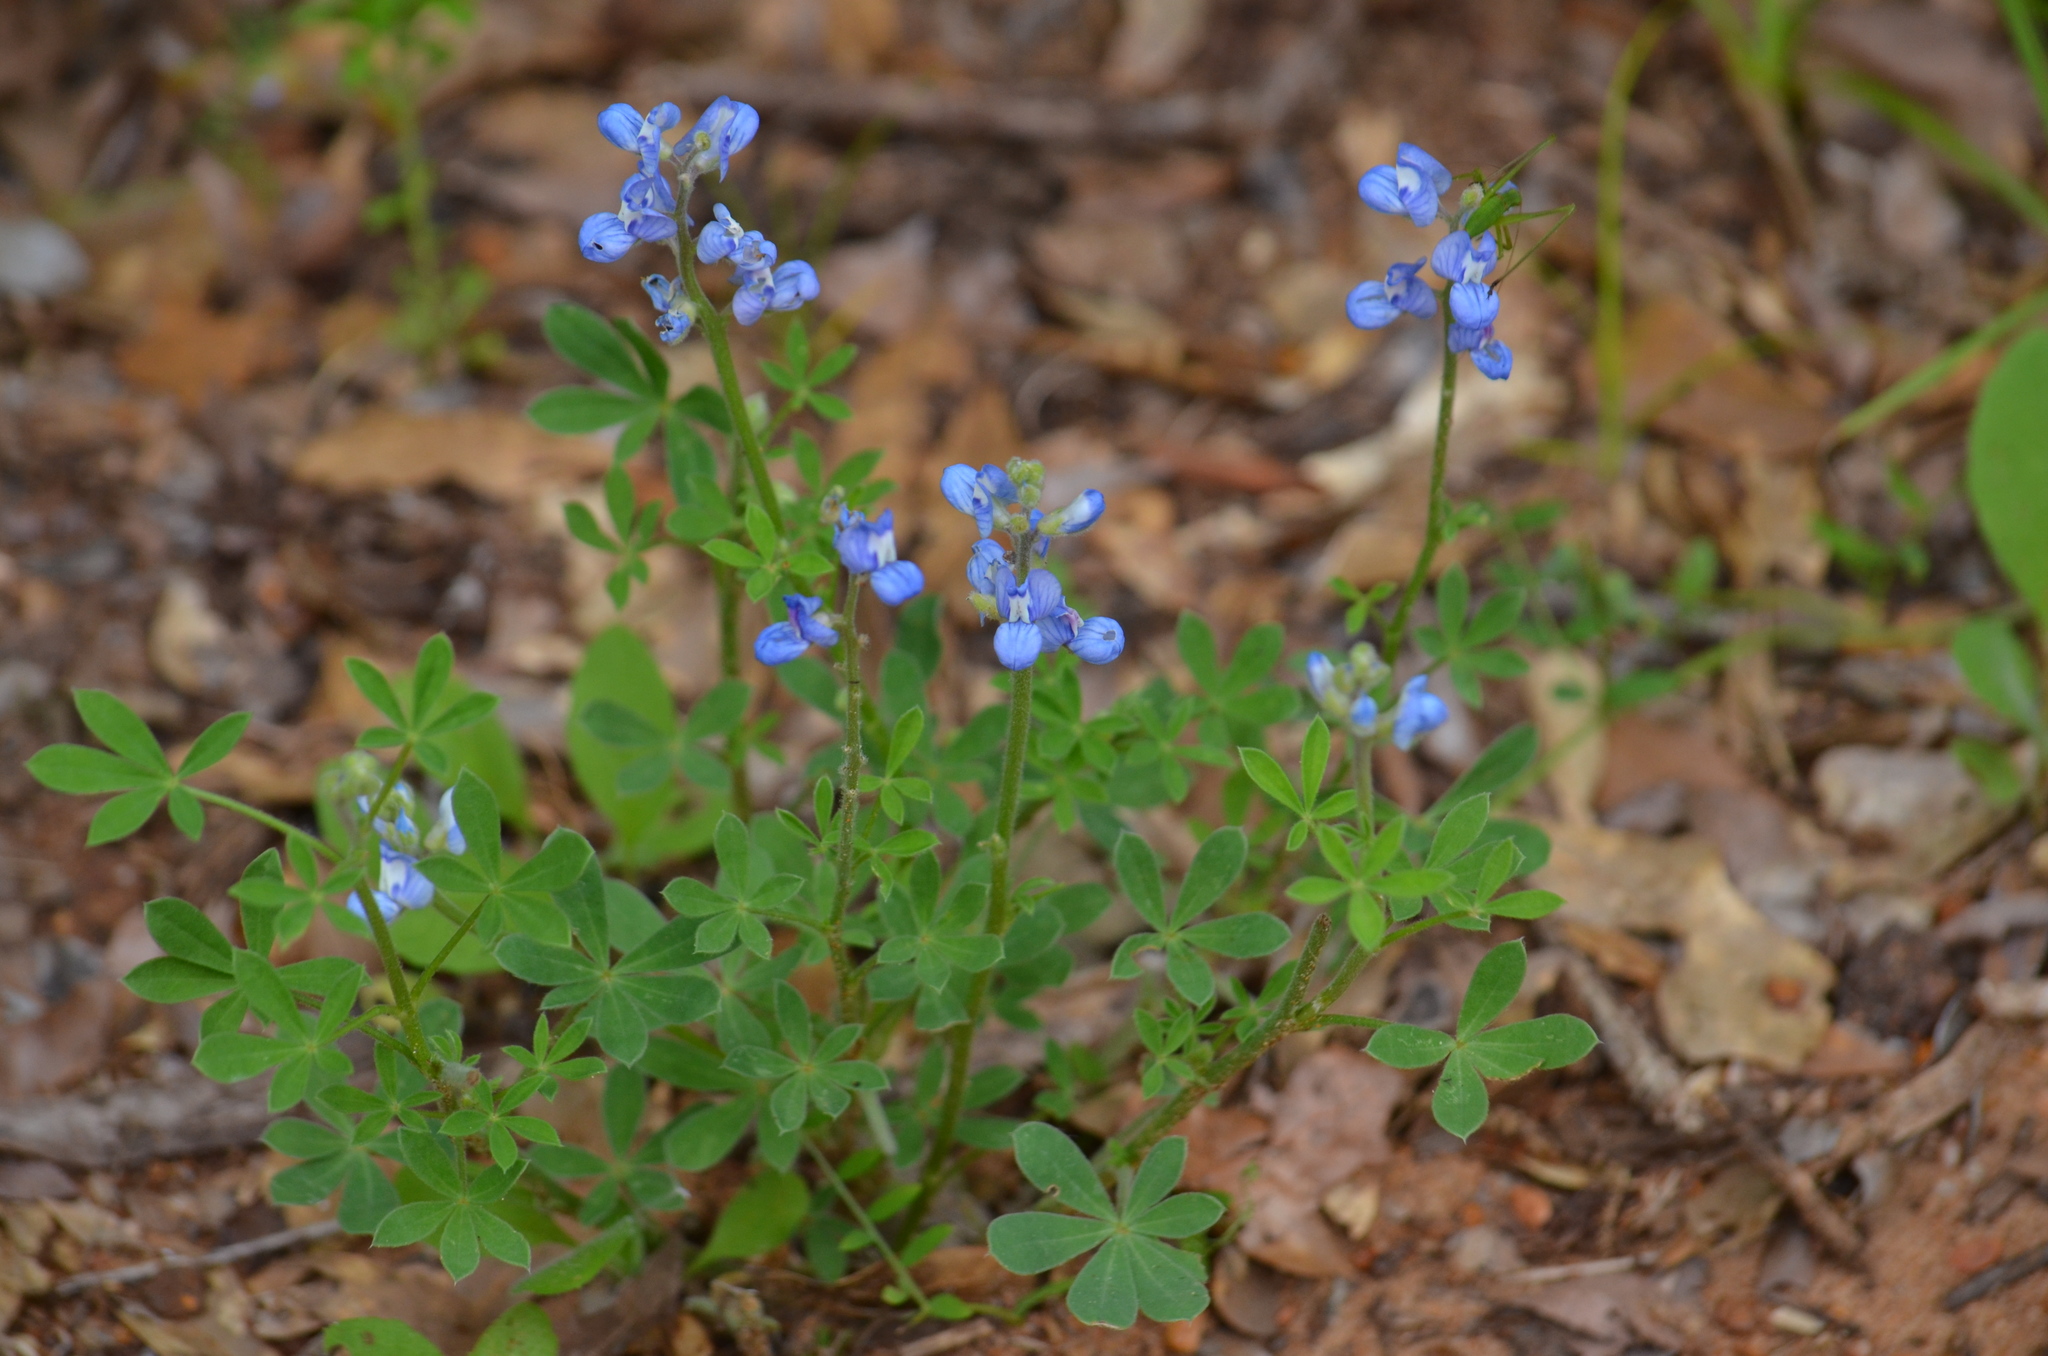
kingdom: Plantae
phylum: Tracheophyta
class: Magnoliopsida
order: Fabales
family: Fabaceae
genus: Lupinus
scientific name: Lupinus subcarnosus
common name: Texas bluebonnet
